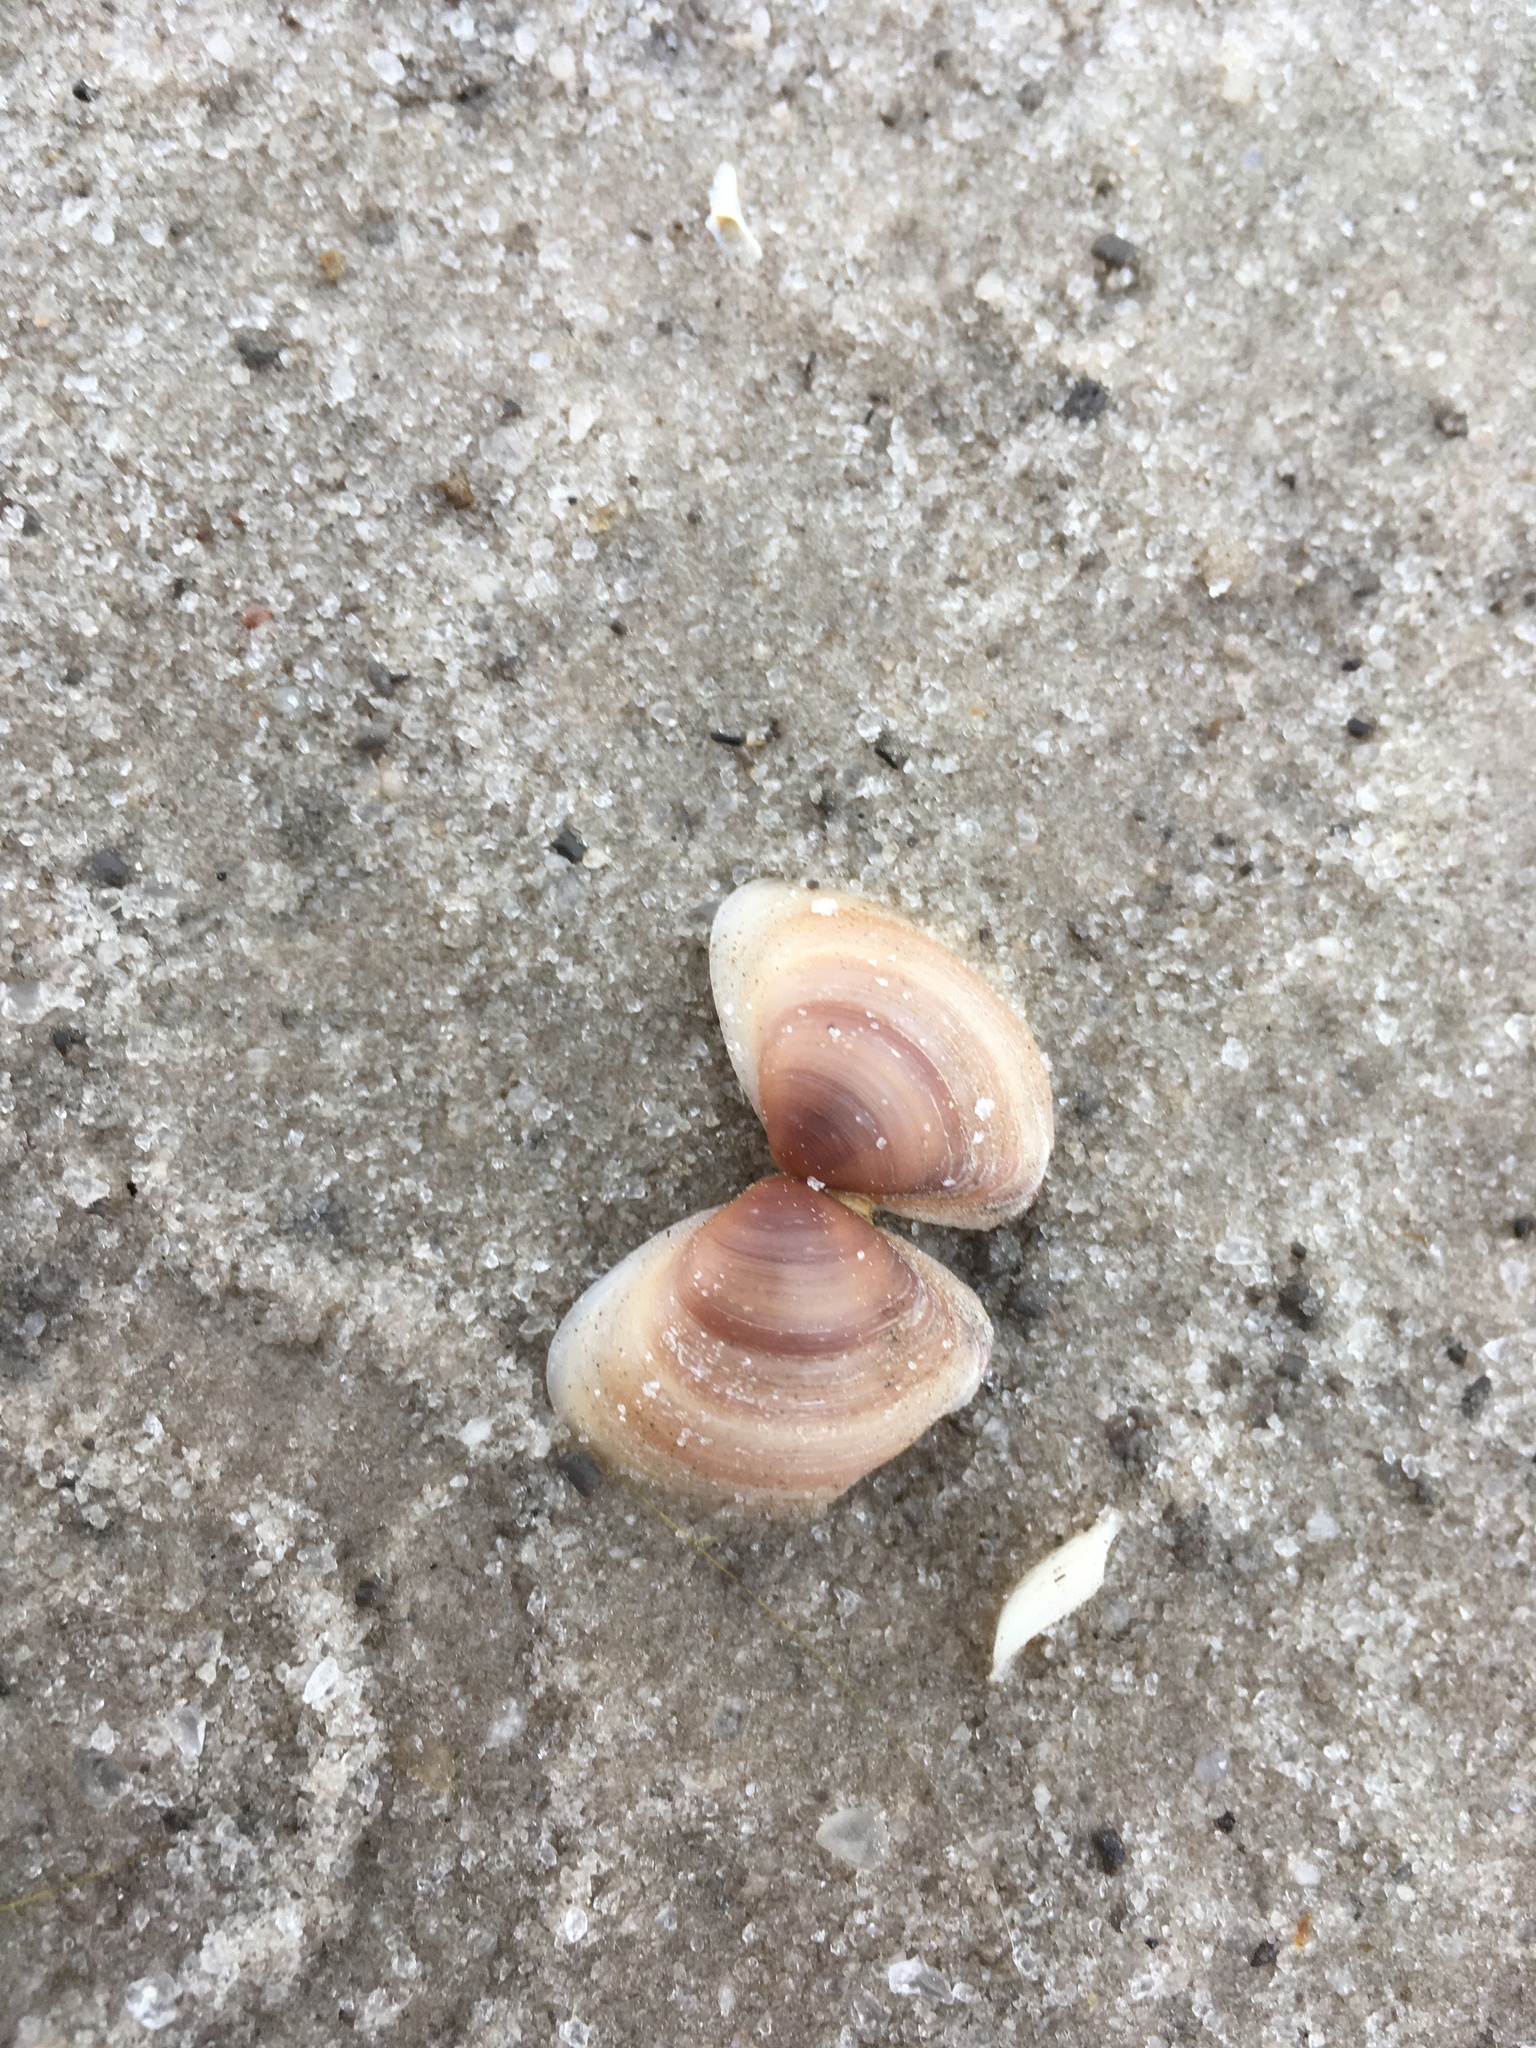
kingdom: Animalia
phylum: Mollusca
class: Bivalvia
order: Venerida
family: Cyrenidae
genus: Polymesoda
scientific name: Polymesoda floridana
